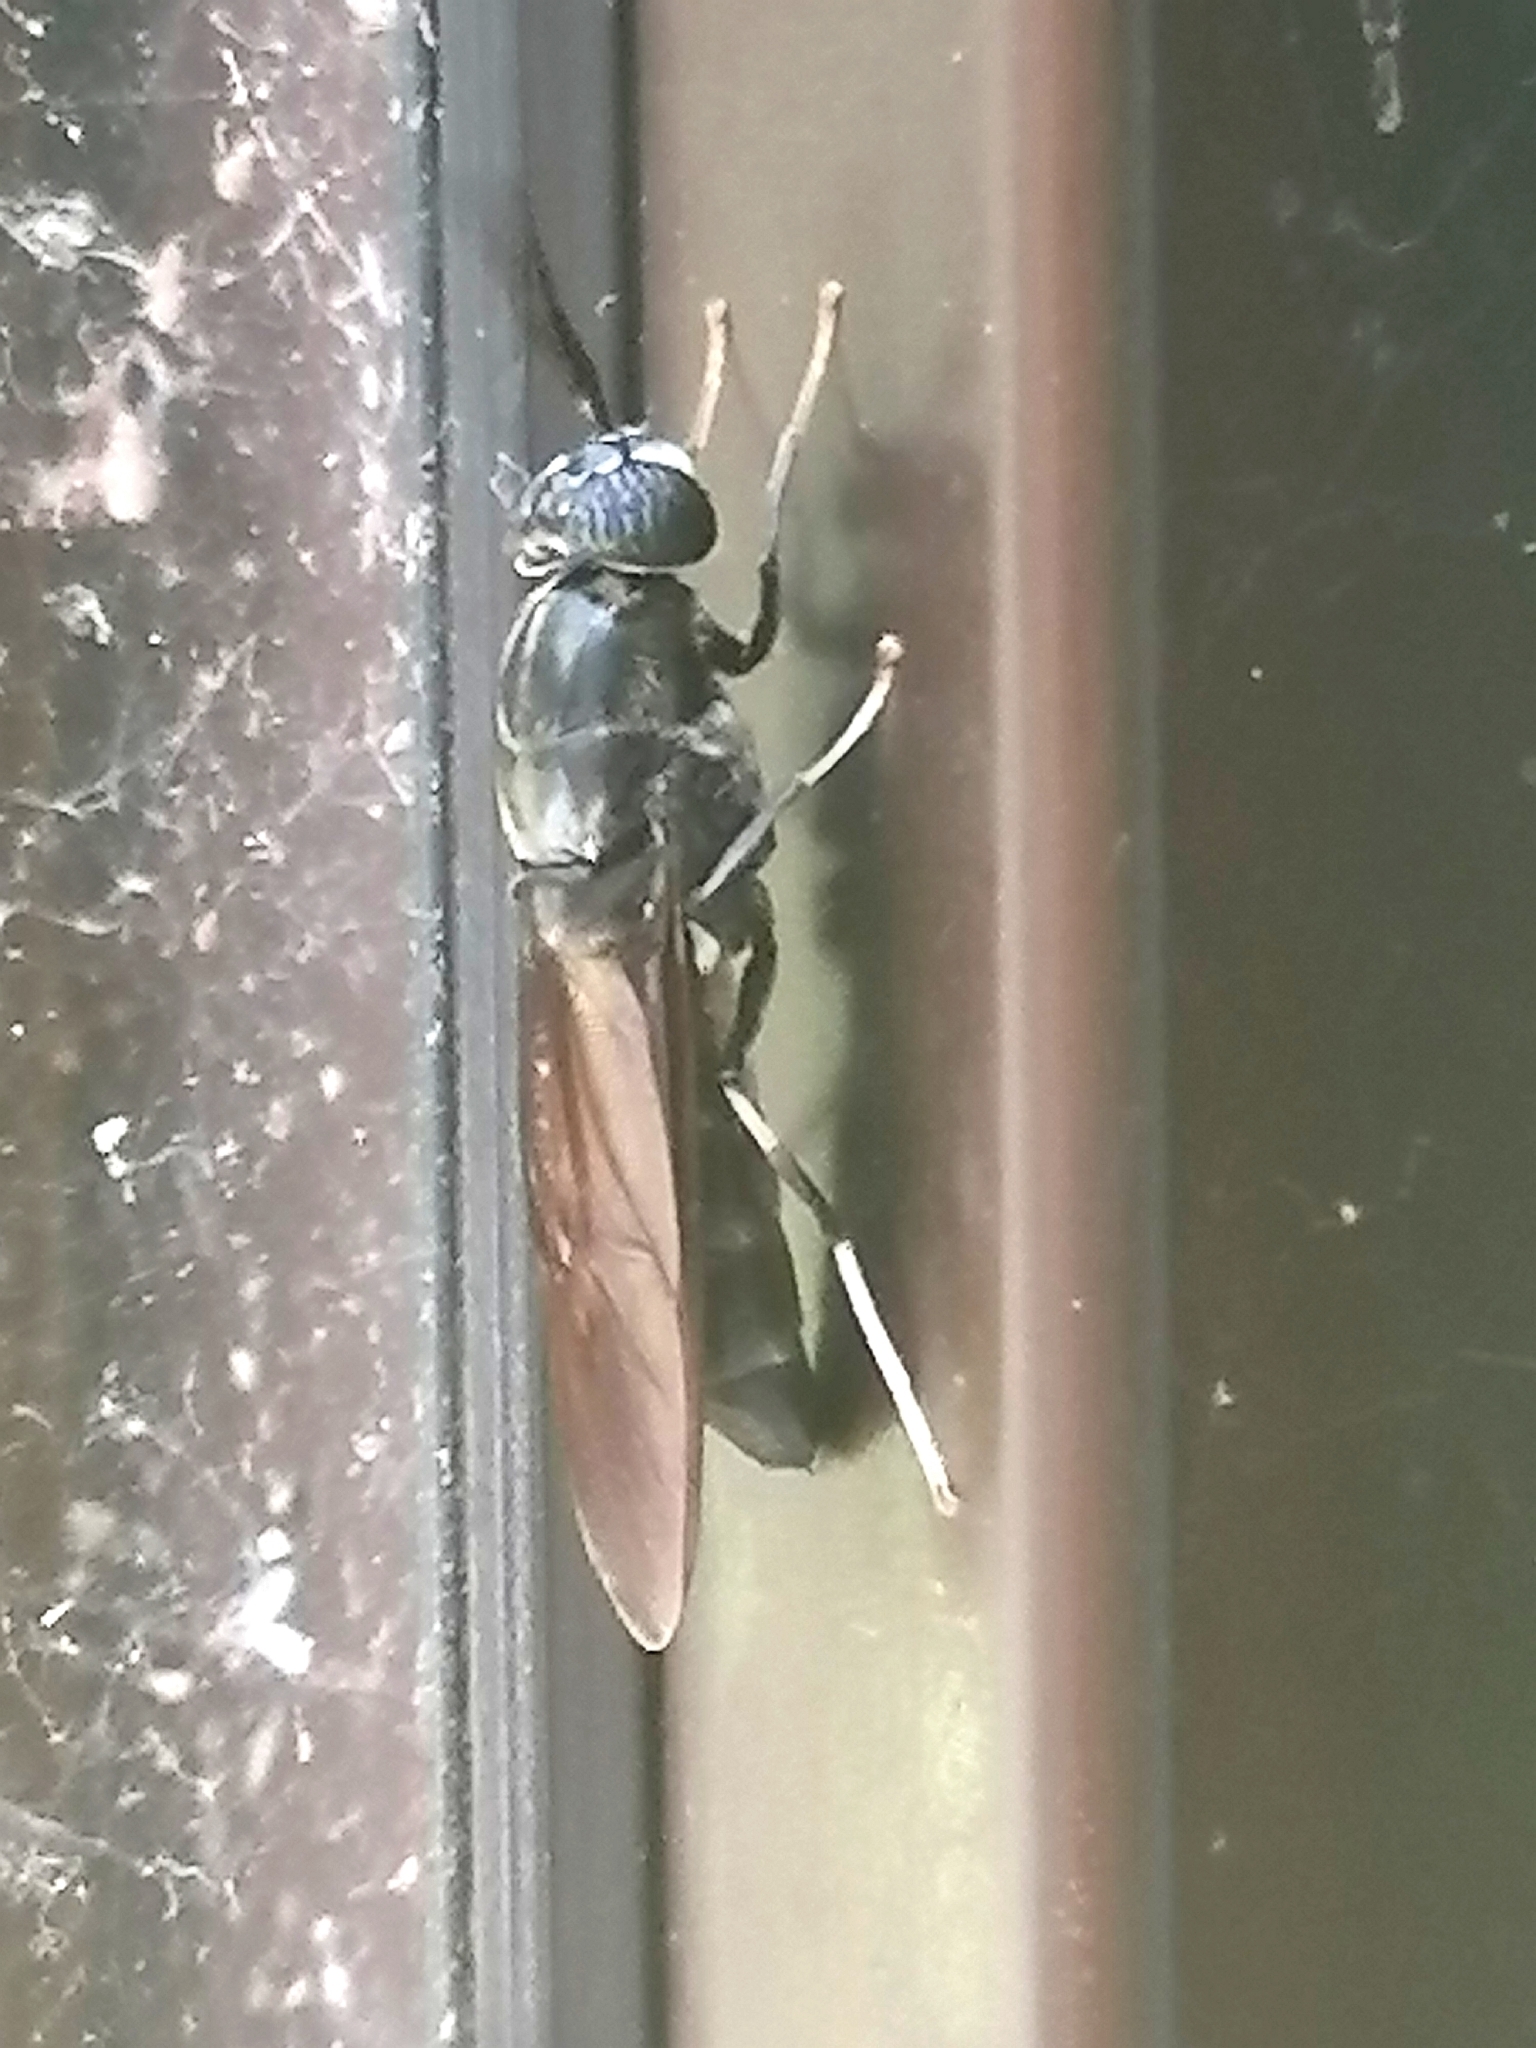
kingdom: Animalia
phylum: Arthropoda
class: Insecta
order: Diptera
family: Stratiomyidae
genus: Hermetia
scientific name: Hermetia illucens
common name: Black soldier fly
